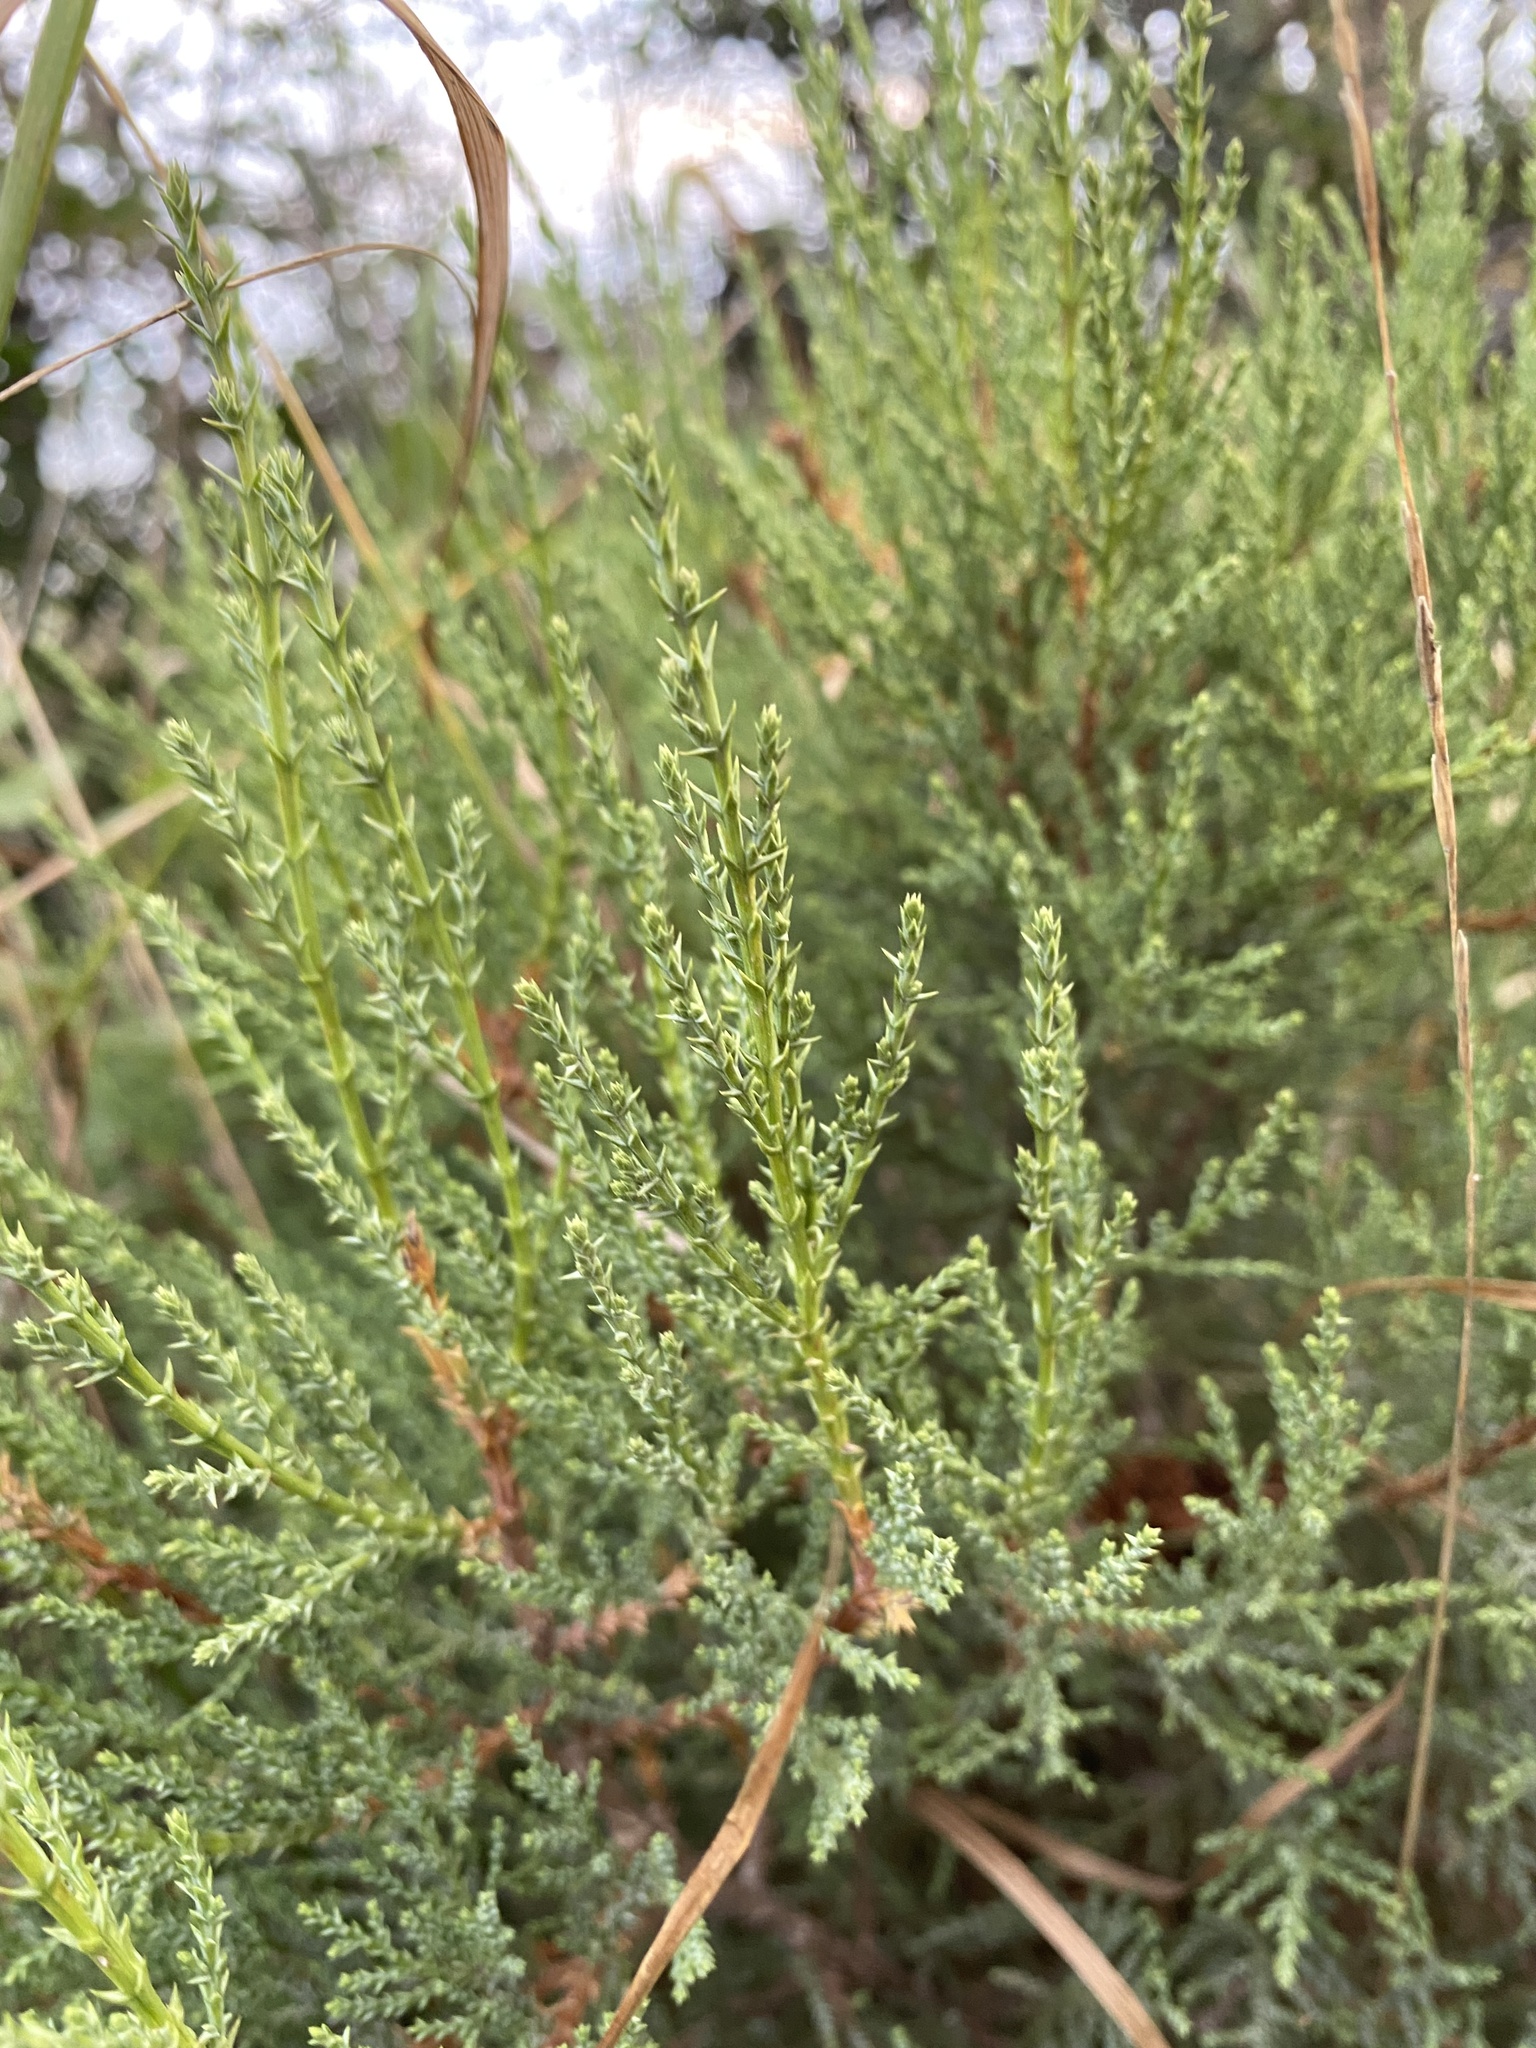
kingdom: Plantae
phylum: Tracheophyta
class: Pinopsida
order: Pinales
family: Cupressaceae
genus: Juniperus
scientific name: Juniperus excelsa
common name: Crimean juniper
